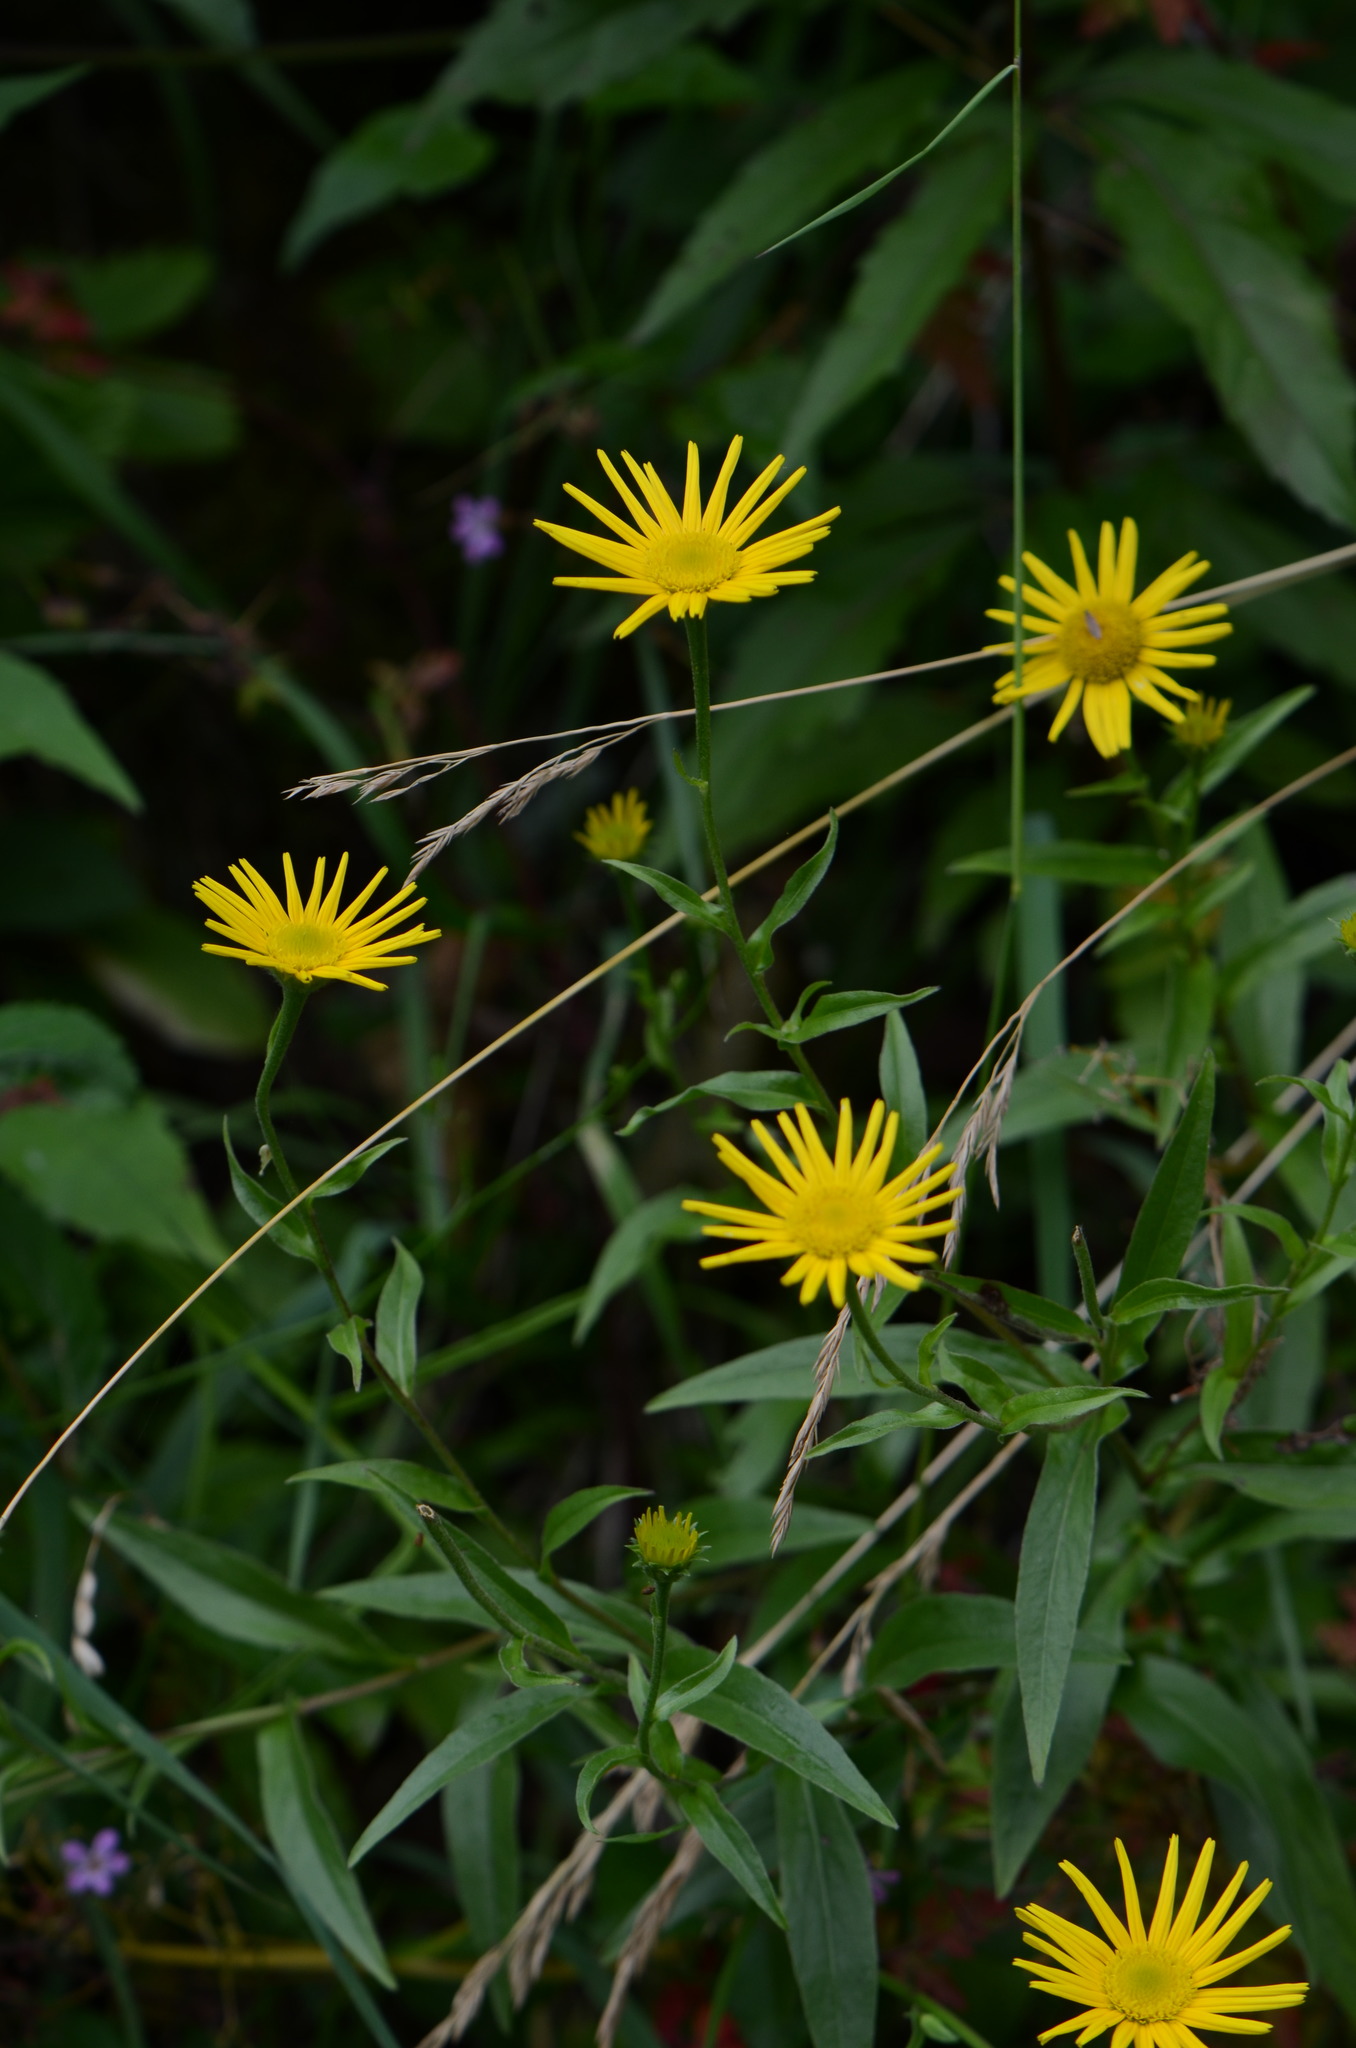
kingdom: Plantae
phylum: Tracheophyta
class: Magnoliopsida
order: Asterales
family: Asteraceae
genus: Buphthalmum
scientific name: Buphthalmum salicifolium
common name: Willow-leaved yellow-oxeye
